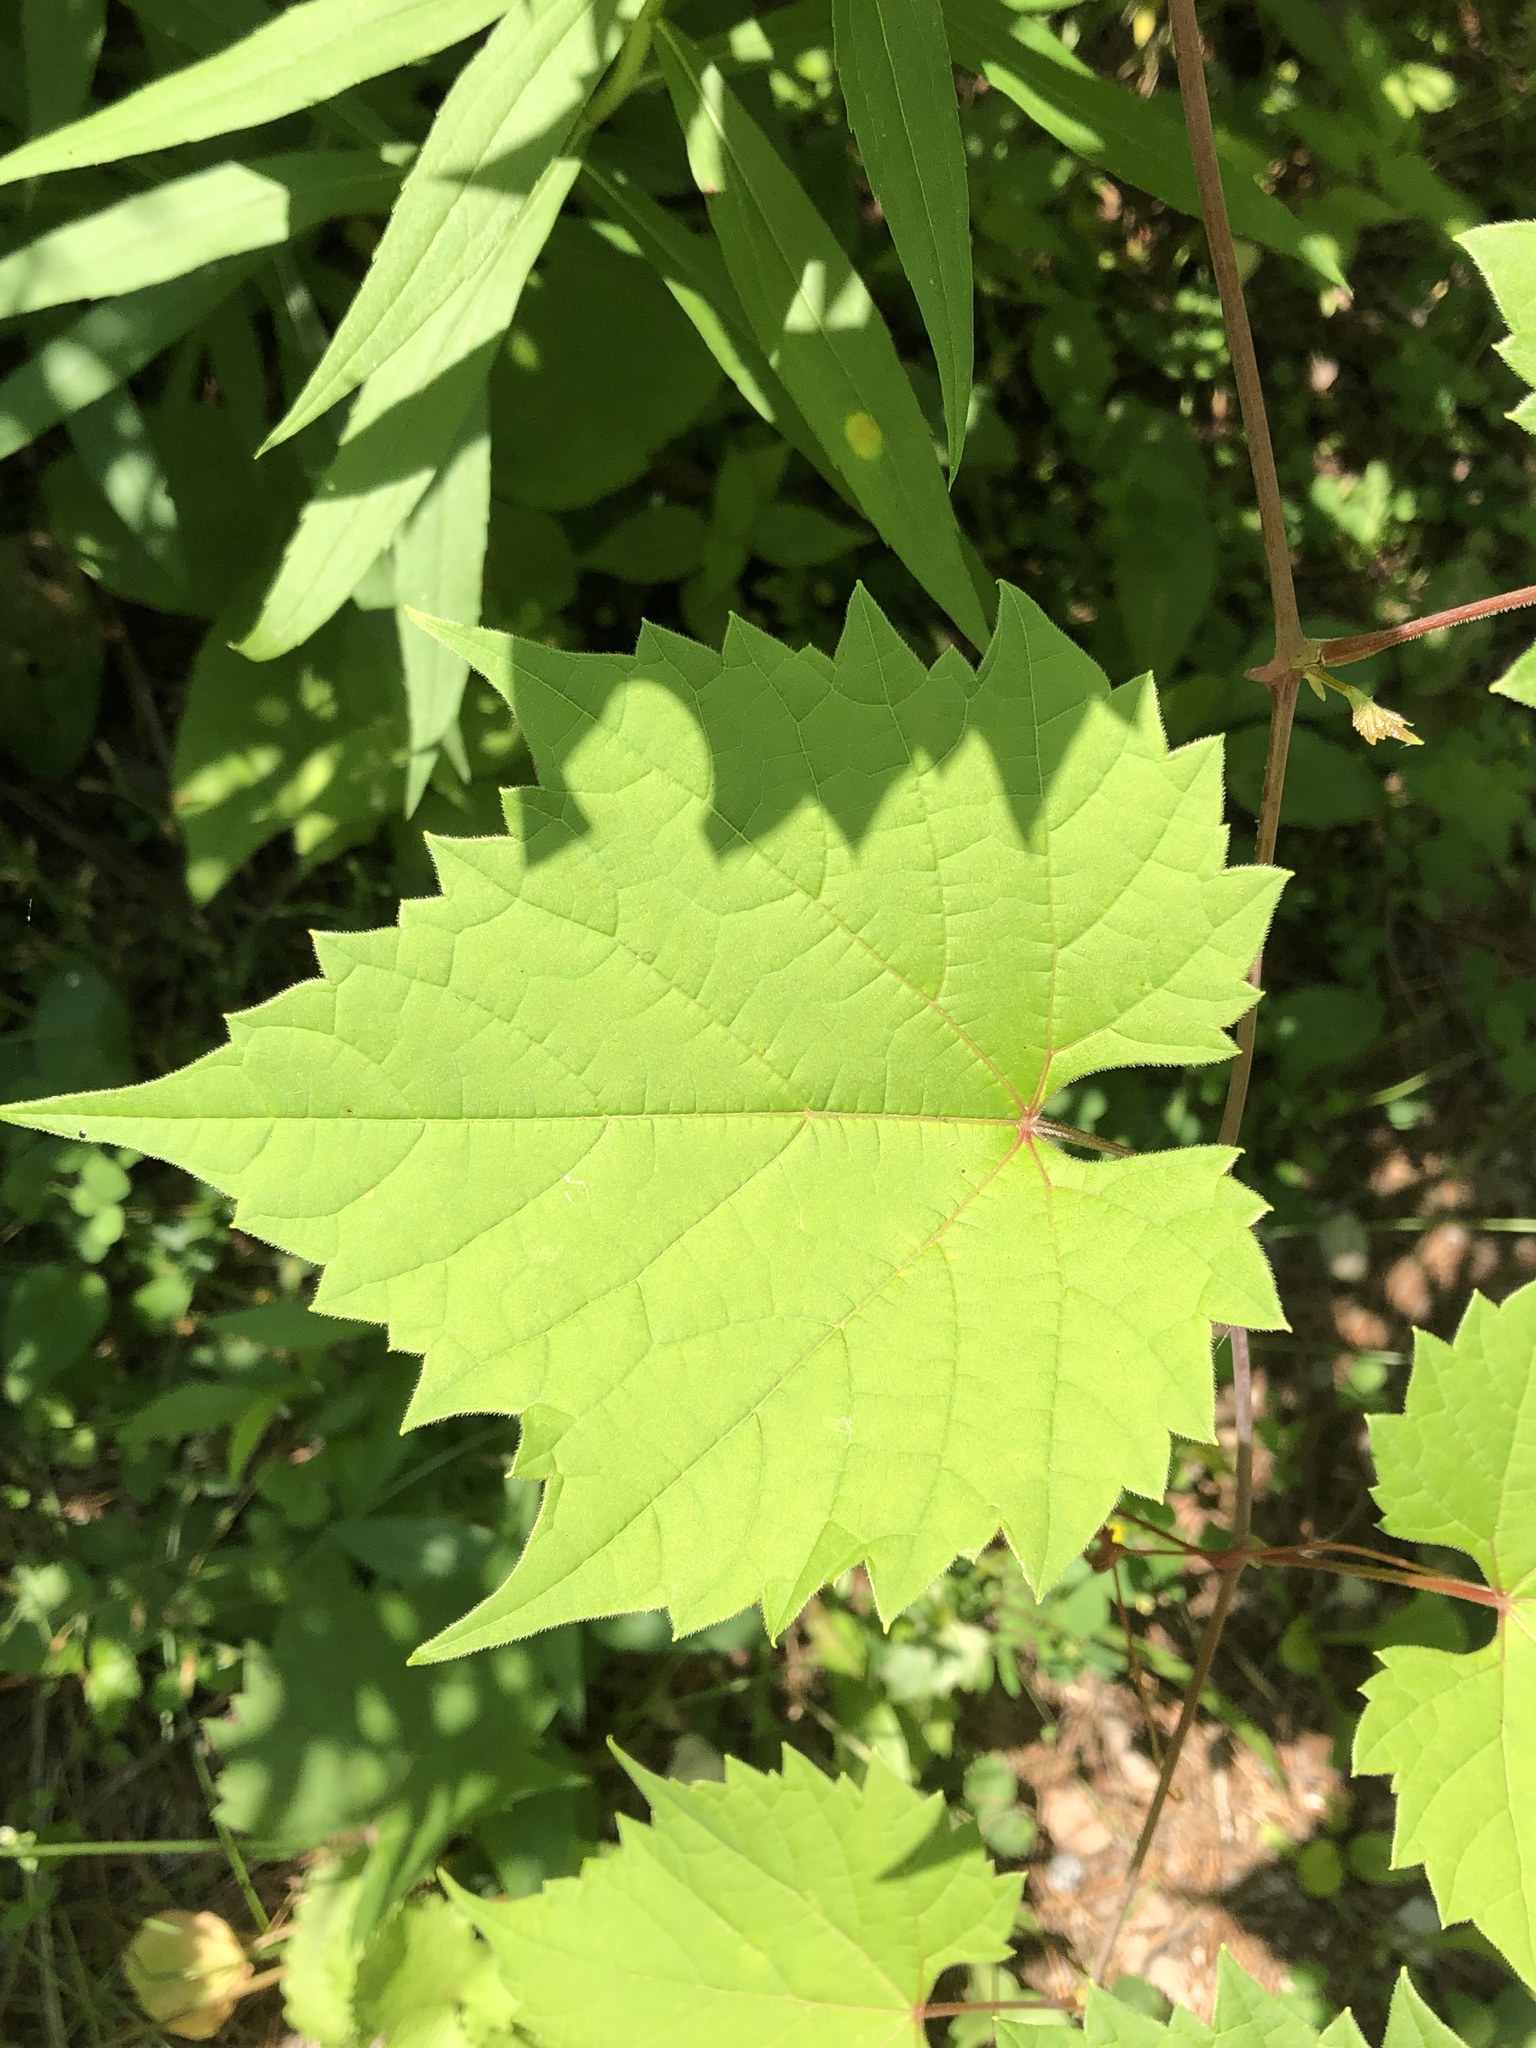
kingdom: Plantae
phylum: Tracheophyta
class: Magnoliopsida
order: Vitales
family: Vitaceae
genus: Vitis
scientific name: Vitis riparia
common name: Frost grape
